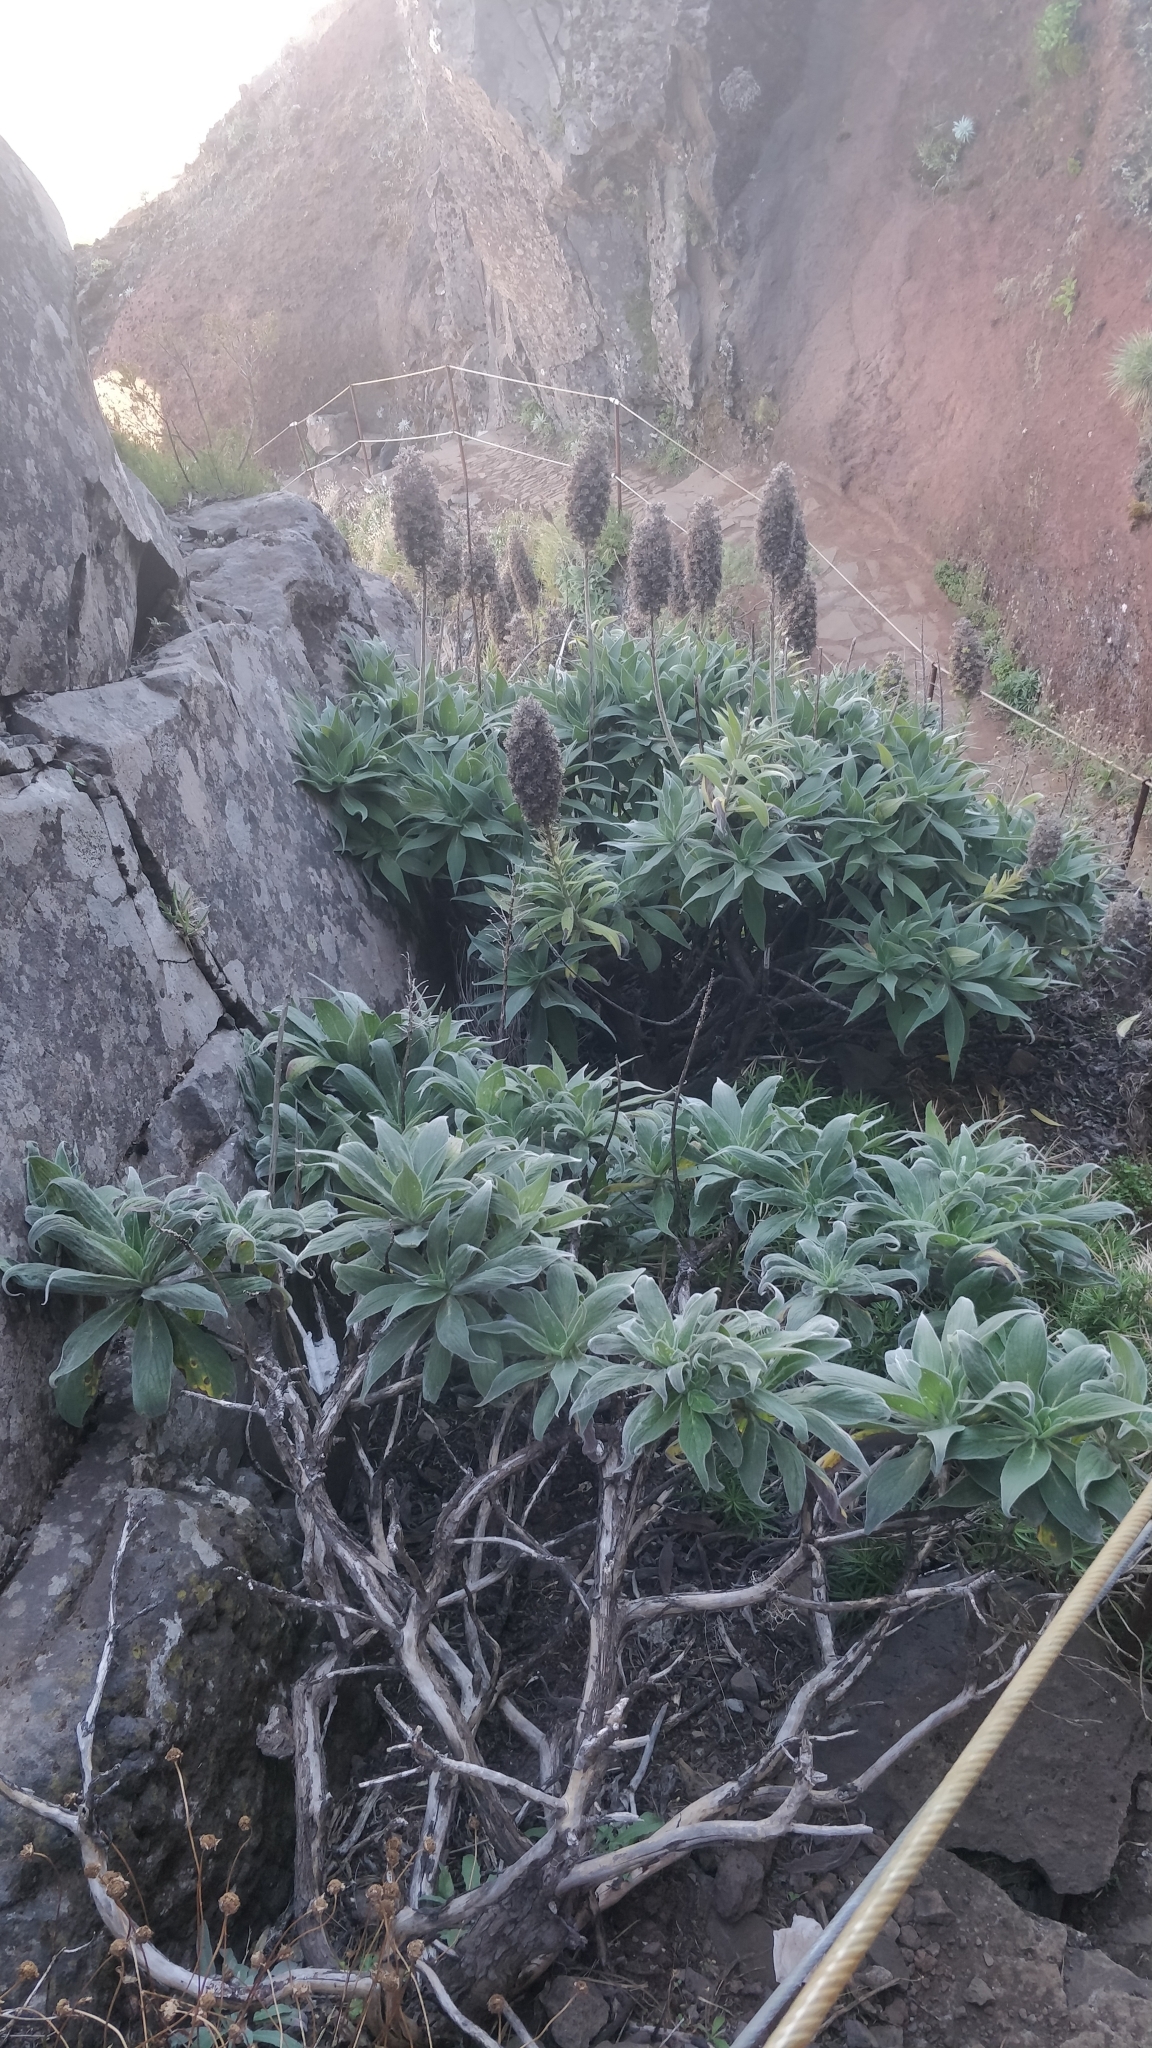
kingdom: Plantae
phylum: Tracheophyta
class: Magnoliopsida
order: Boraginales
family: Boraginaceae
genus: Echium
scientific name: Echium candicans
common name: Pride of madeira
